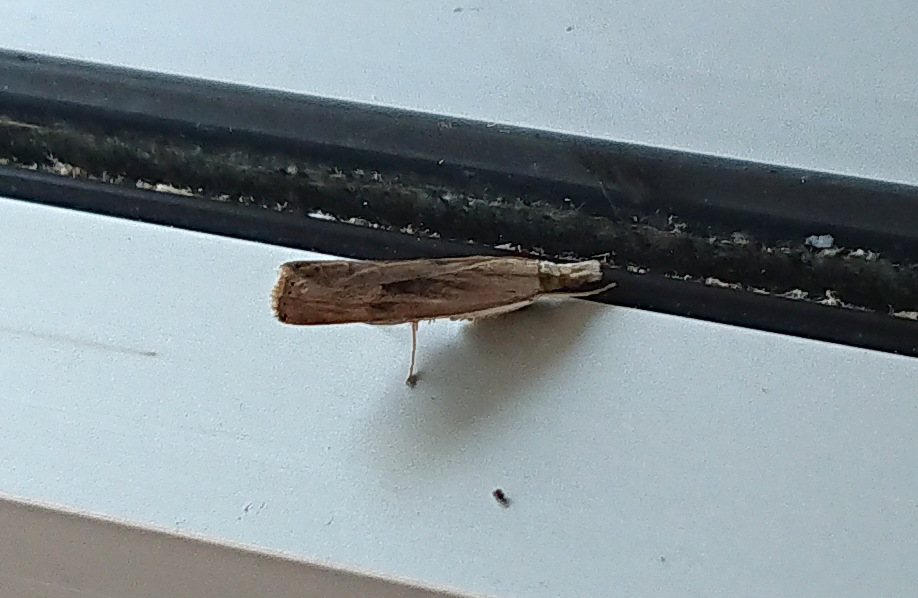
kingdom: Animalia
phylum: Arthropoda
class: Insecta
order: Lepidoptera
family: Crambidae
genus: Parapediasia
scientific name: Parapediasia teterellus
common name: Bluegrass webworm moth
